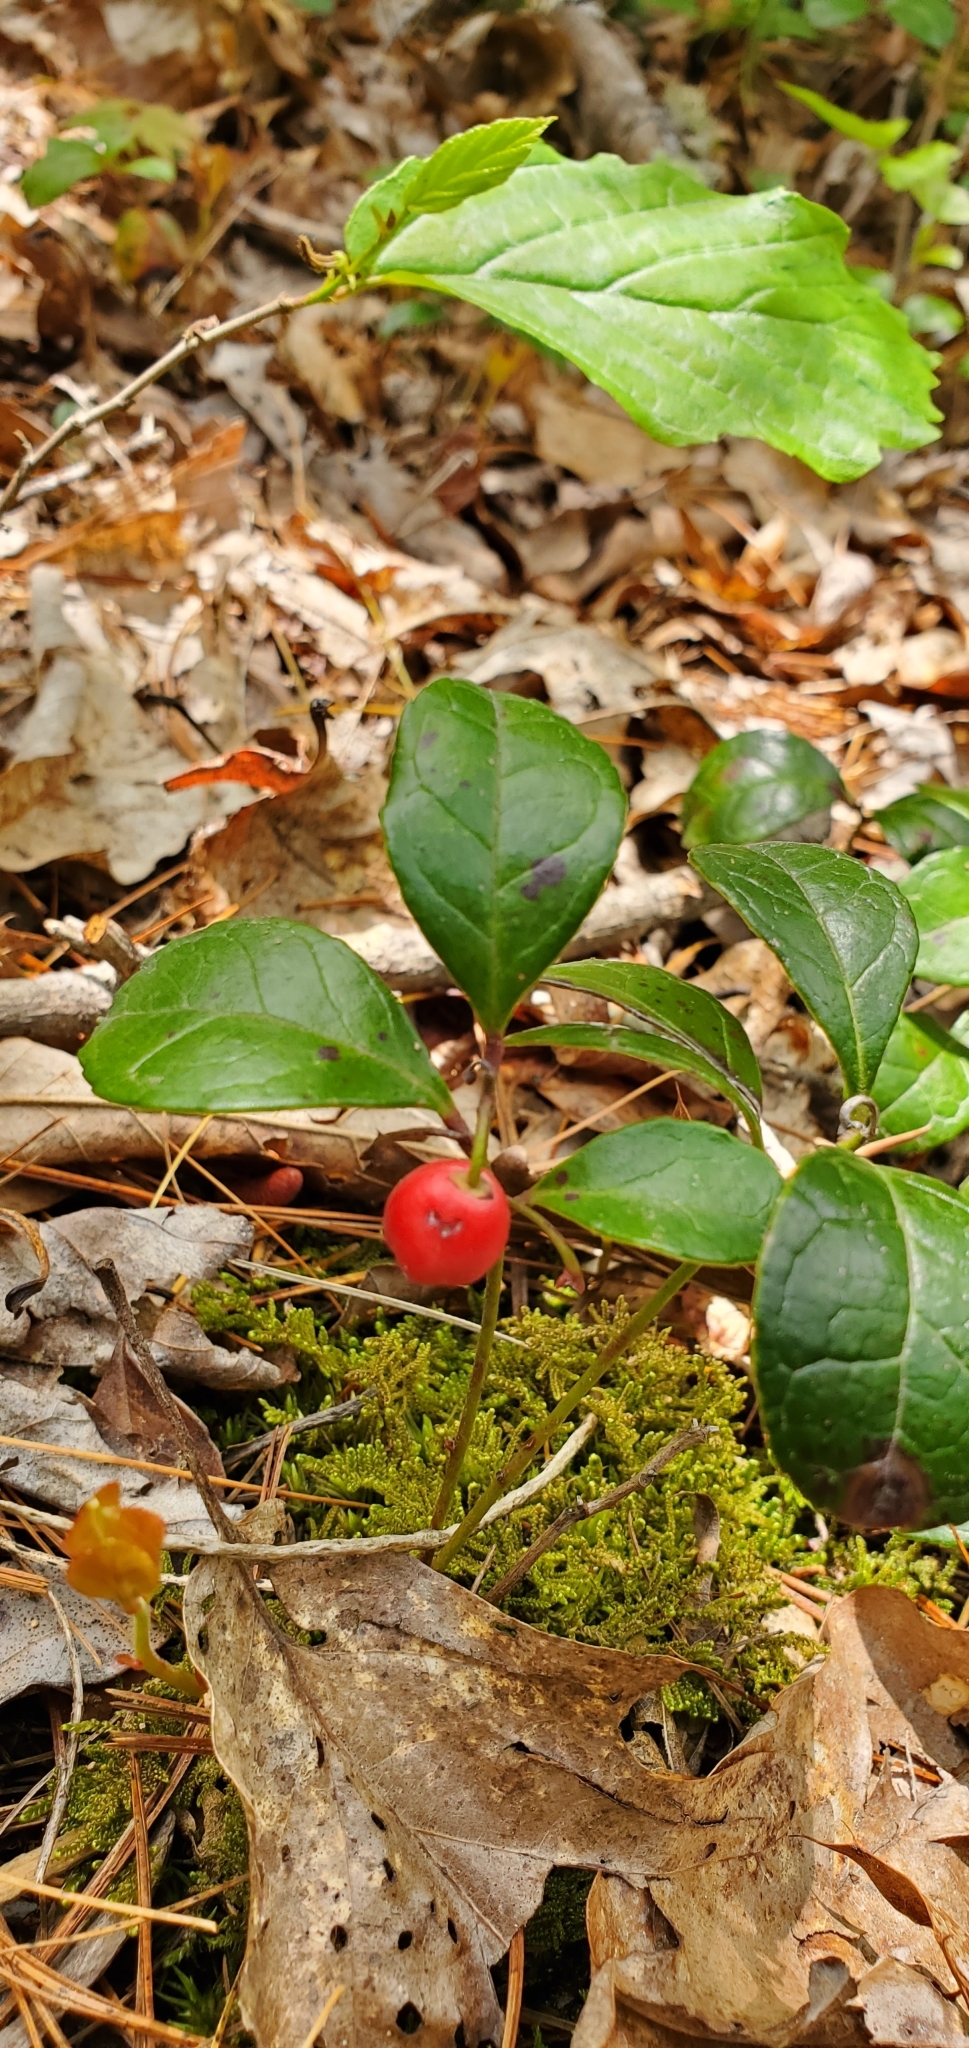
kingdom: Plantae
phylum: Tracheophyta
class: Magnoliopsida
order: Ericales
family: Ericaceae
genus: Gaultheria
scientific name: Gaultheria procumbens
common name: Checkerberry
